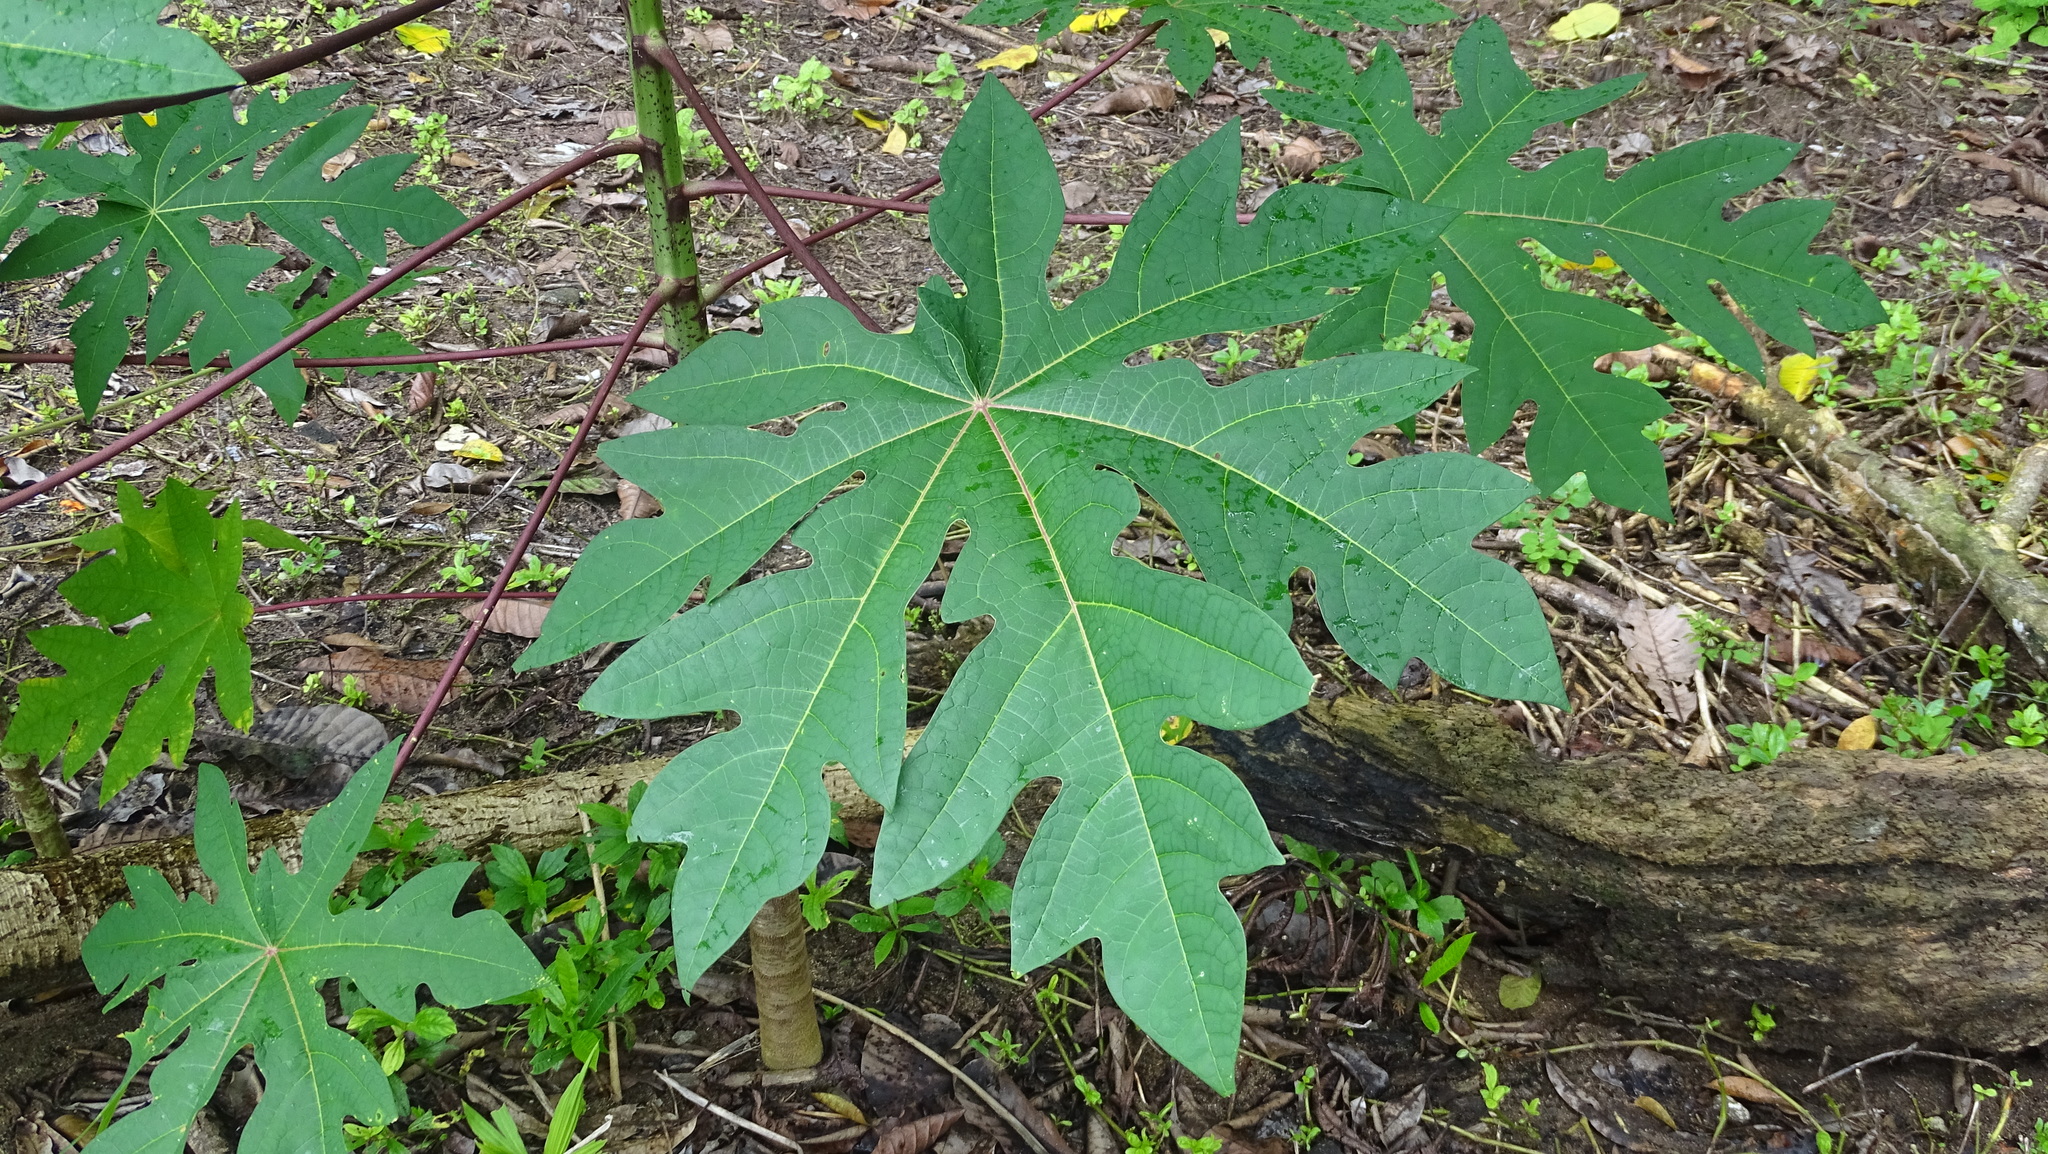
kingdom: Plantae
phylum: Tracheophyta
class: Magnoliopsida
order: Brassicales
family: Caricaceae
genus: Carica
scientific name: Carica papaya
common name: Papaya
